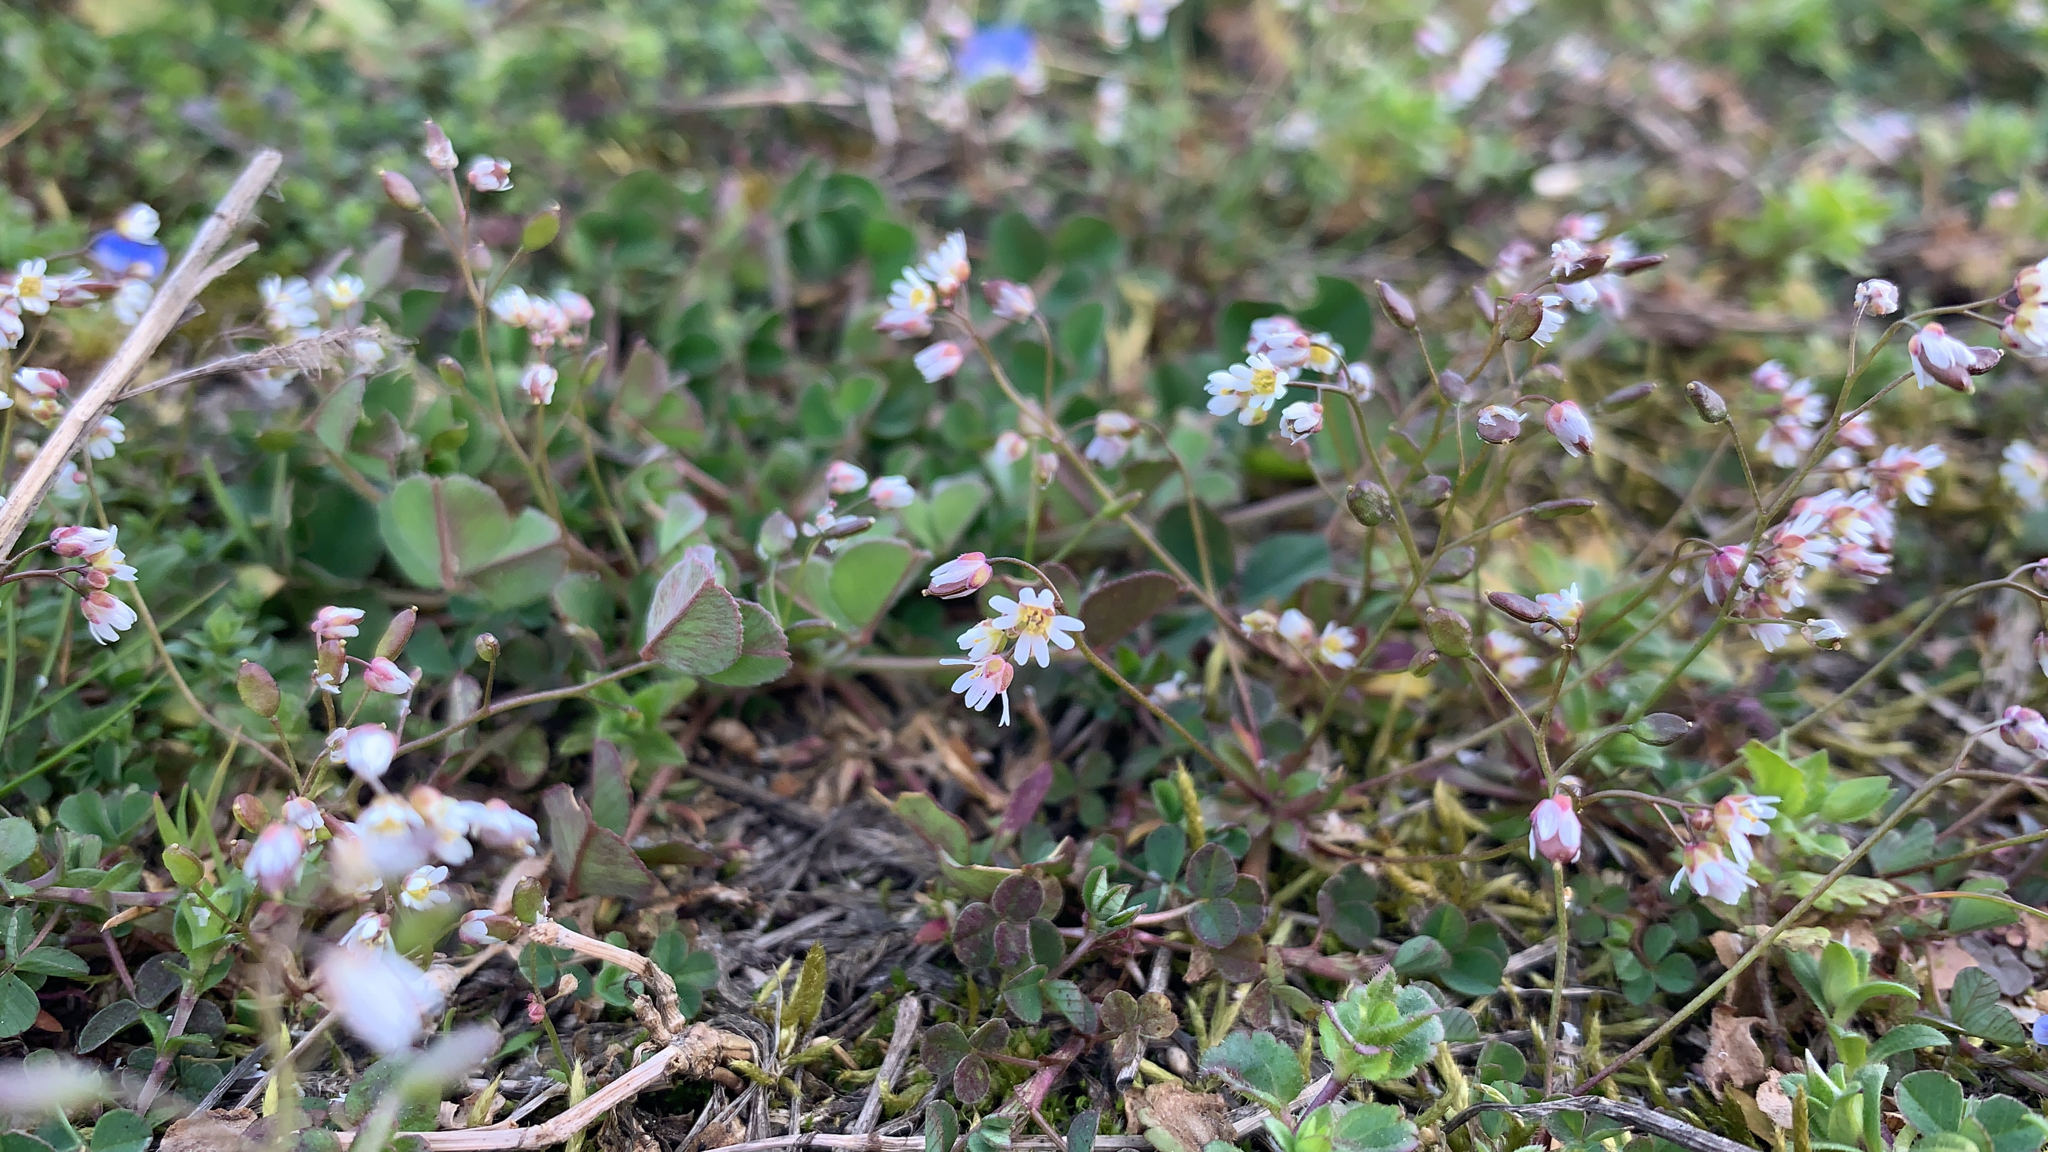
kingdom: Plantae
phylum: Tracheophyta
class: Magnoliopsida
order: Brassicales
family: Brassicaceae
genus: Draba
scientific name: Draba verna
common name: Spring draba
